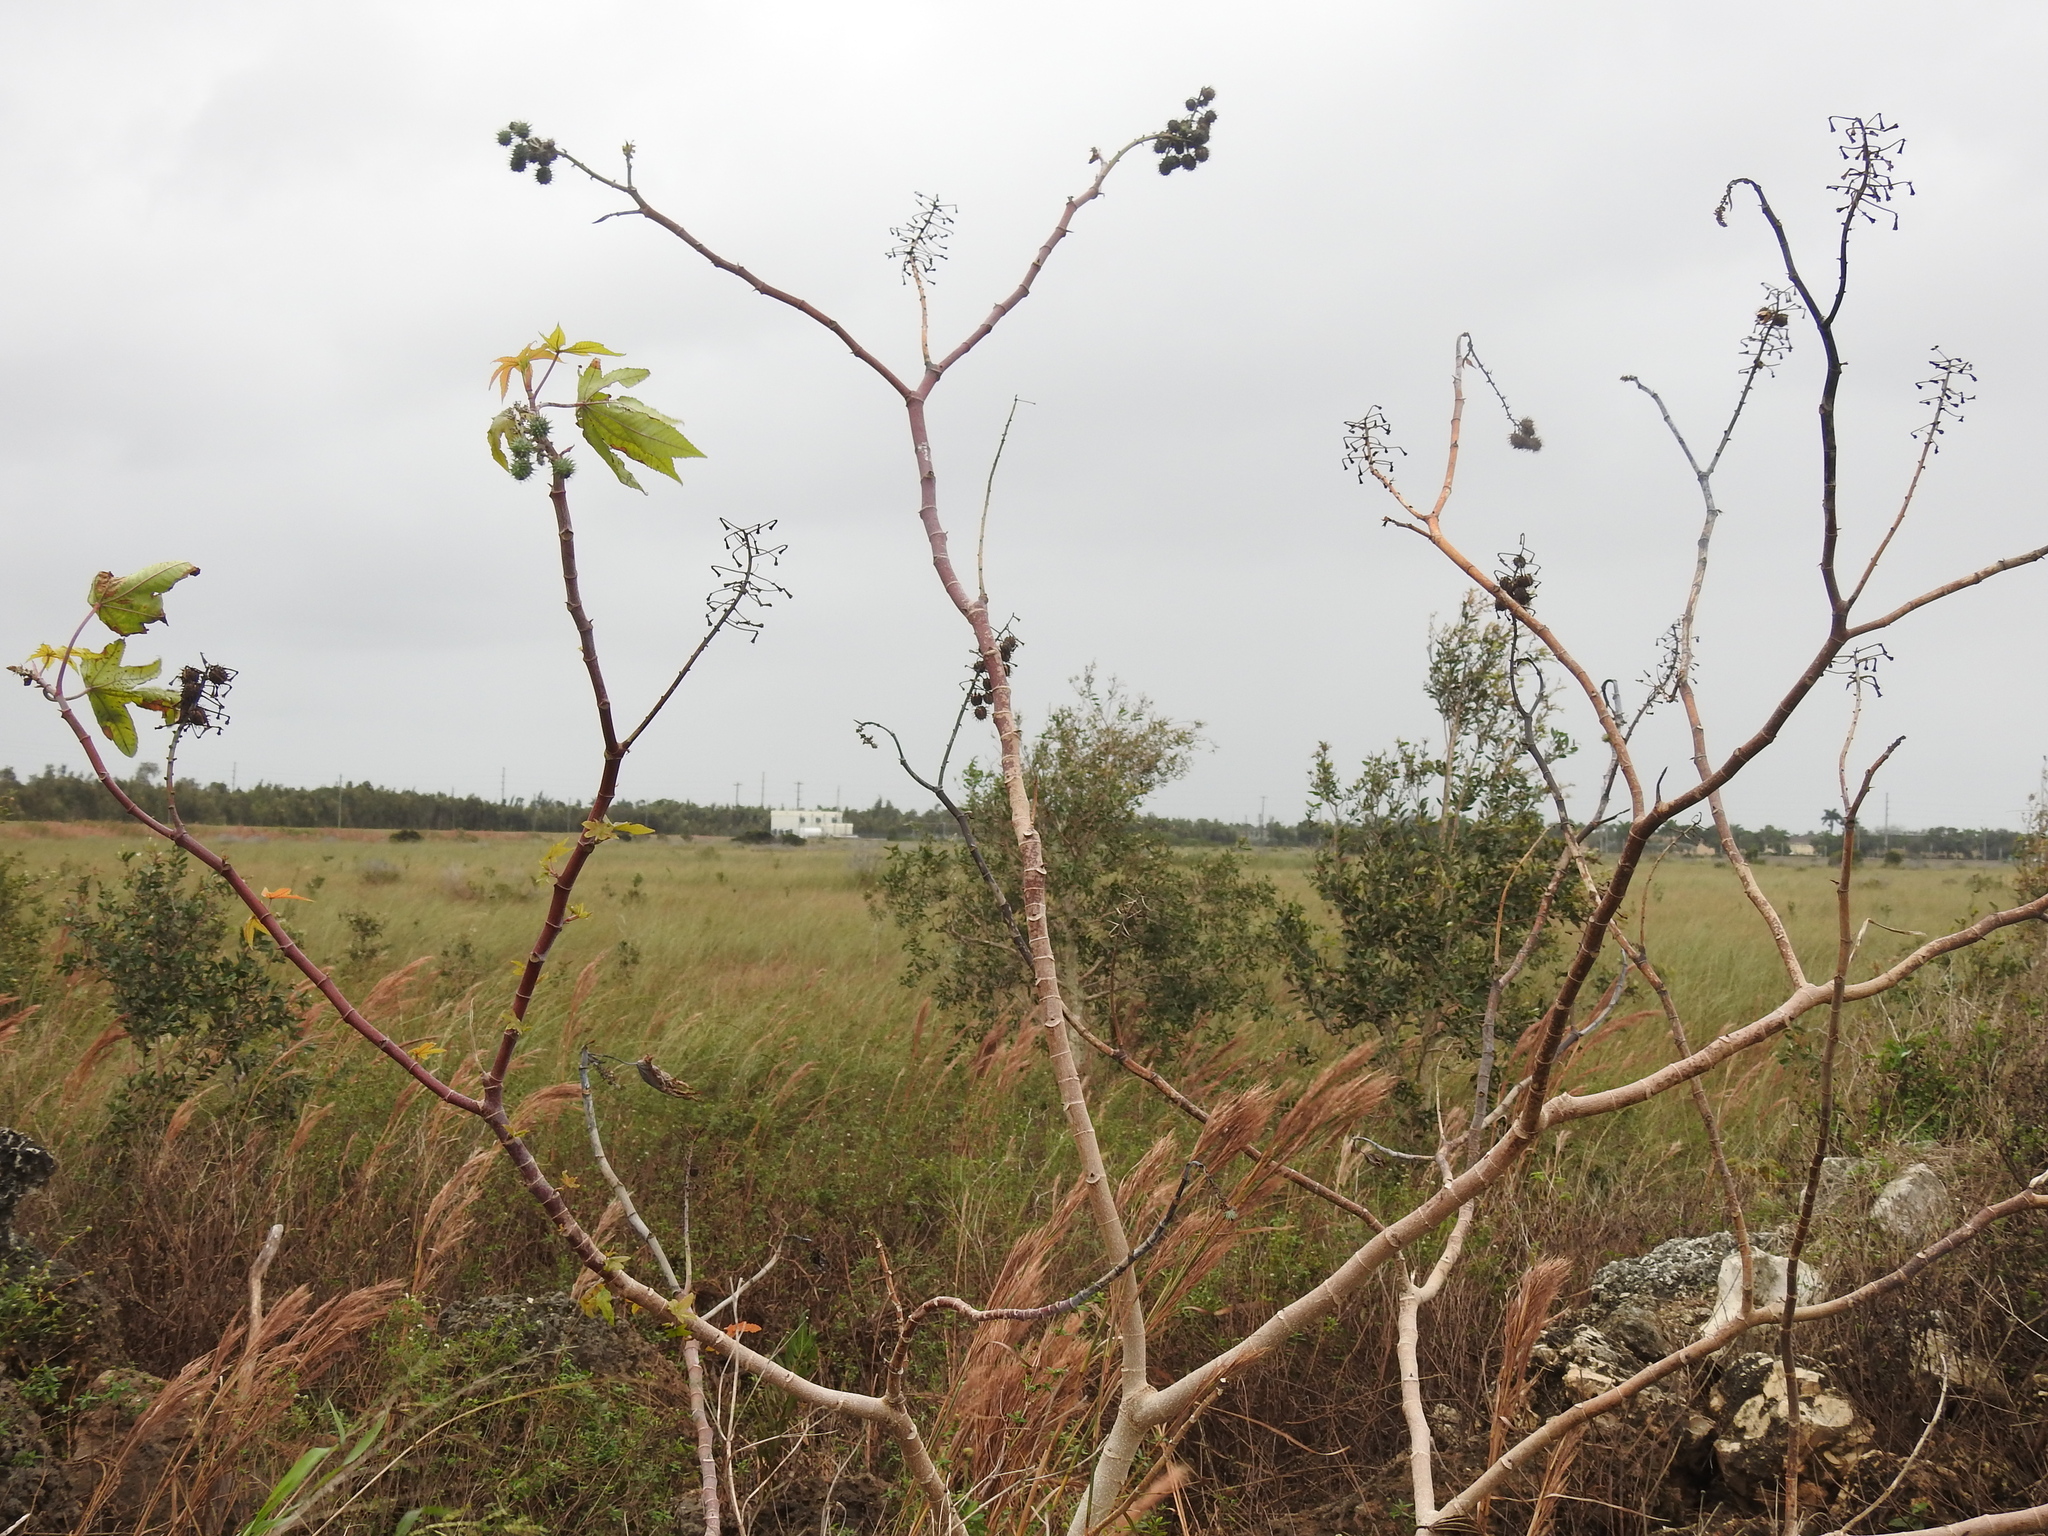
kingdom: Plantae
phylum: Tracheophyta
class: Magnoliopsida
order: Malpighiales
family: Euphorbiaceae
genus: Ricinus
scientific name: Ricinus communis
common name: Castor-oil-plant
